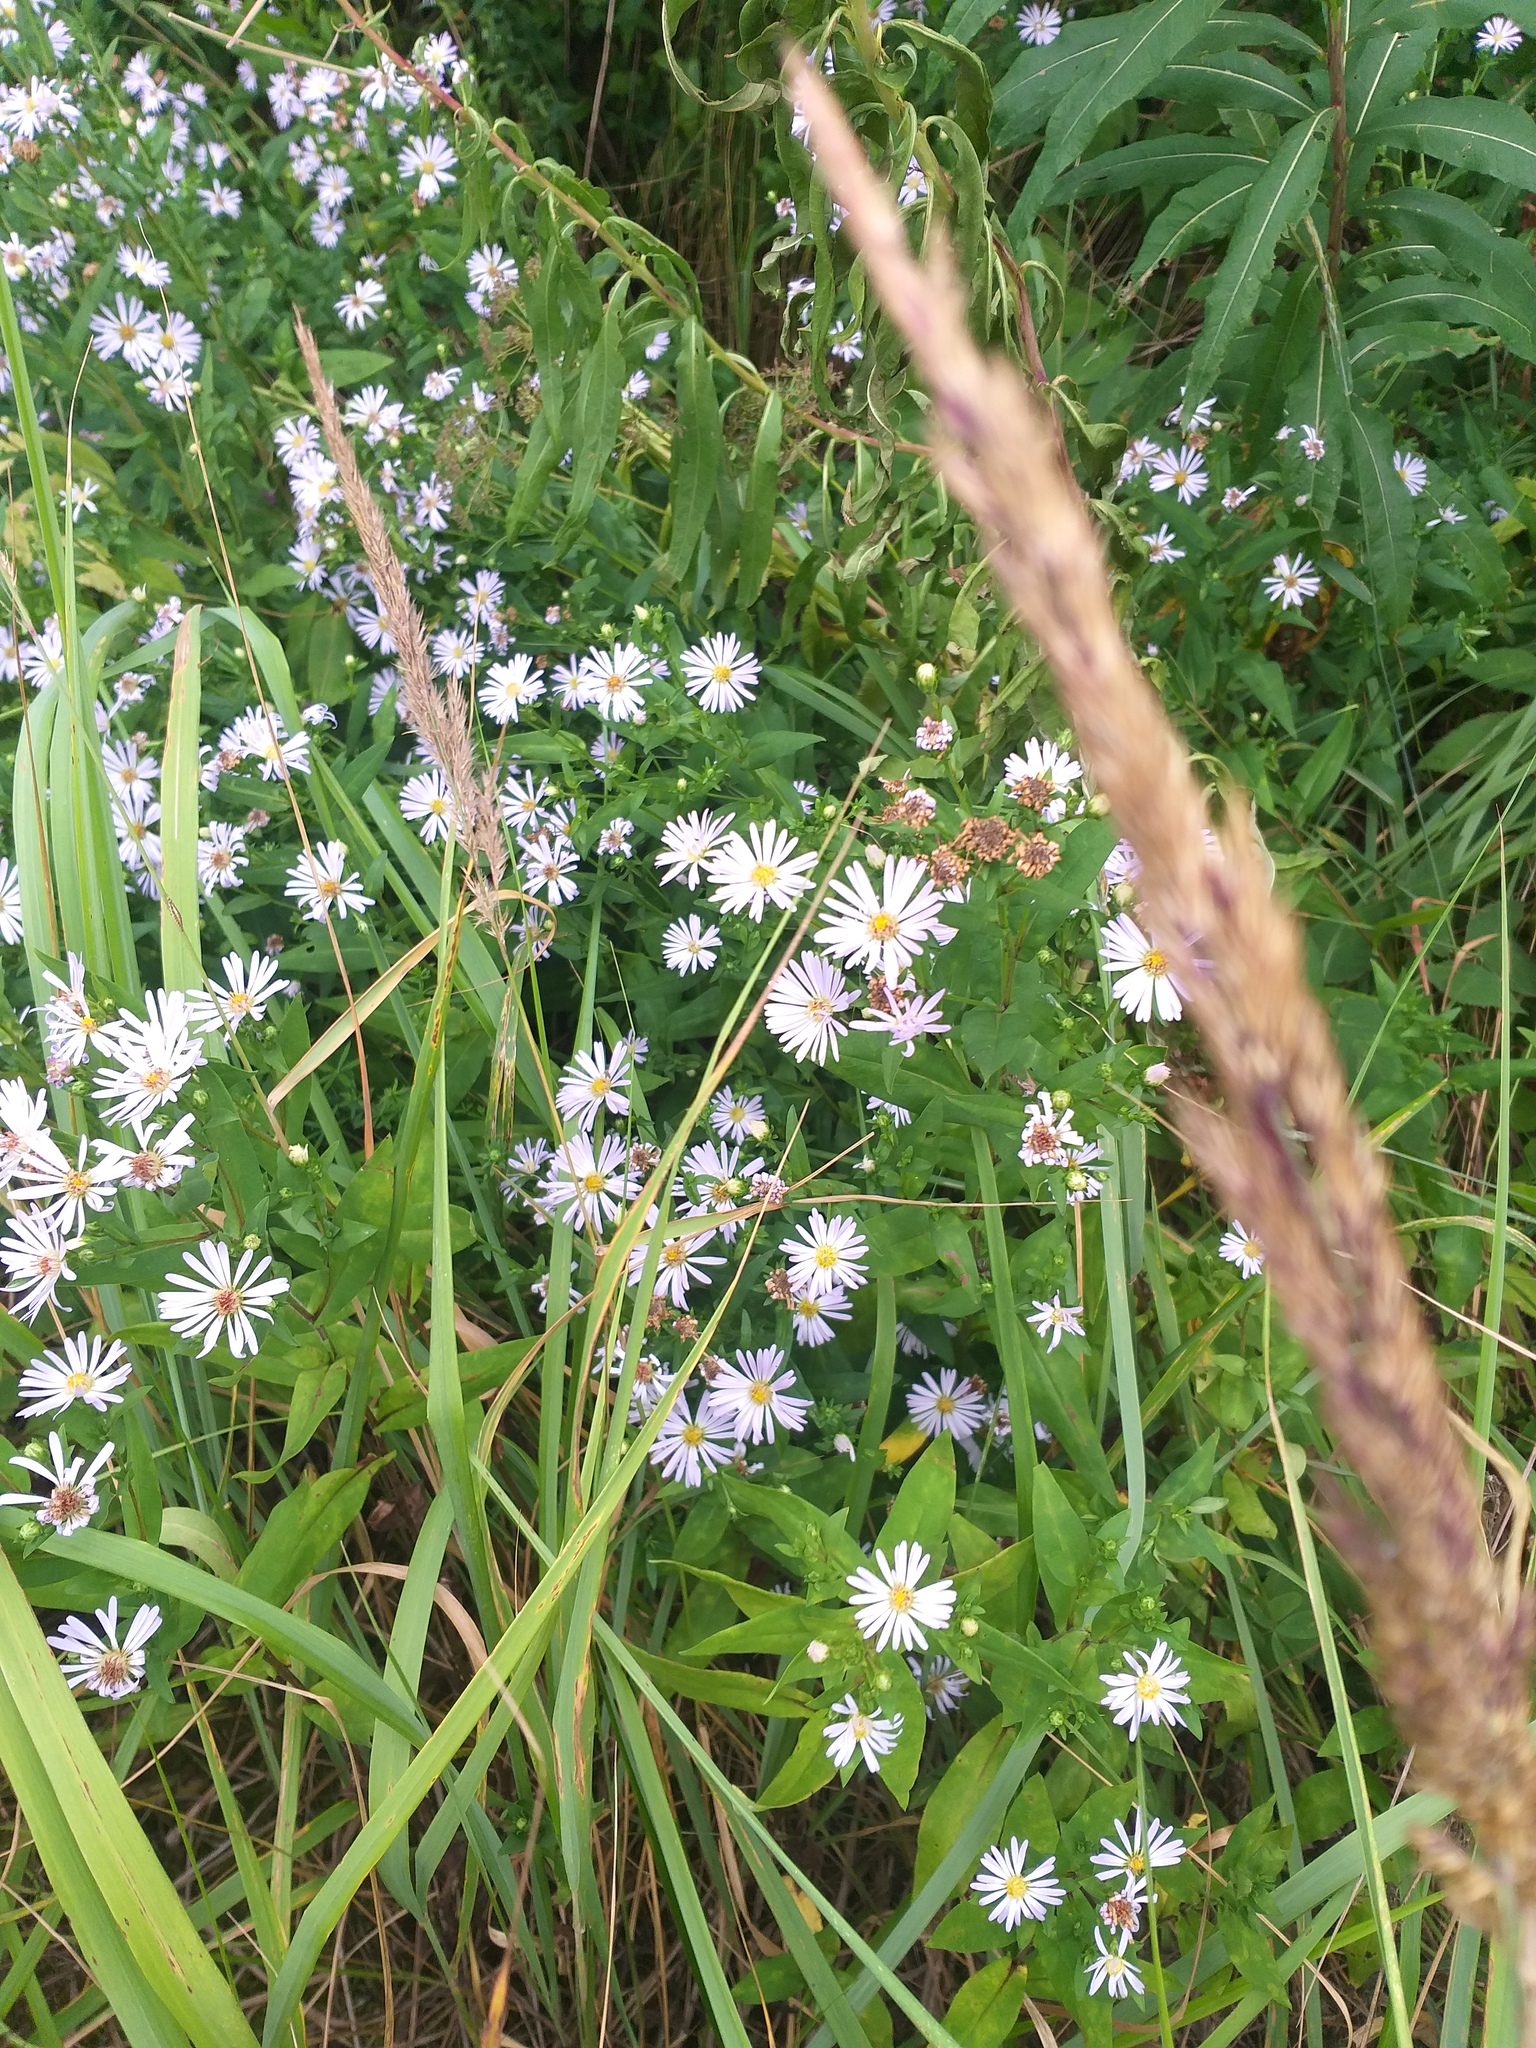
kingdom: Plantae
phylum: Tracheophyta
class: Magnoliopsida
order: Asterales
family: Asteraceae
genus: Symphyotrichum
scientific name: Symphyotrichum novi-belgii
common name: Michaelmas daisy
